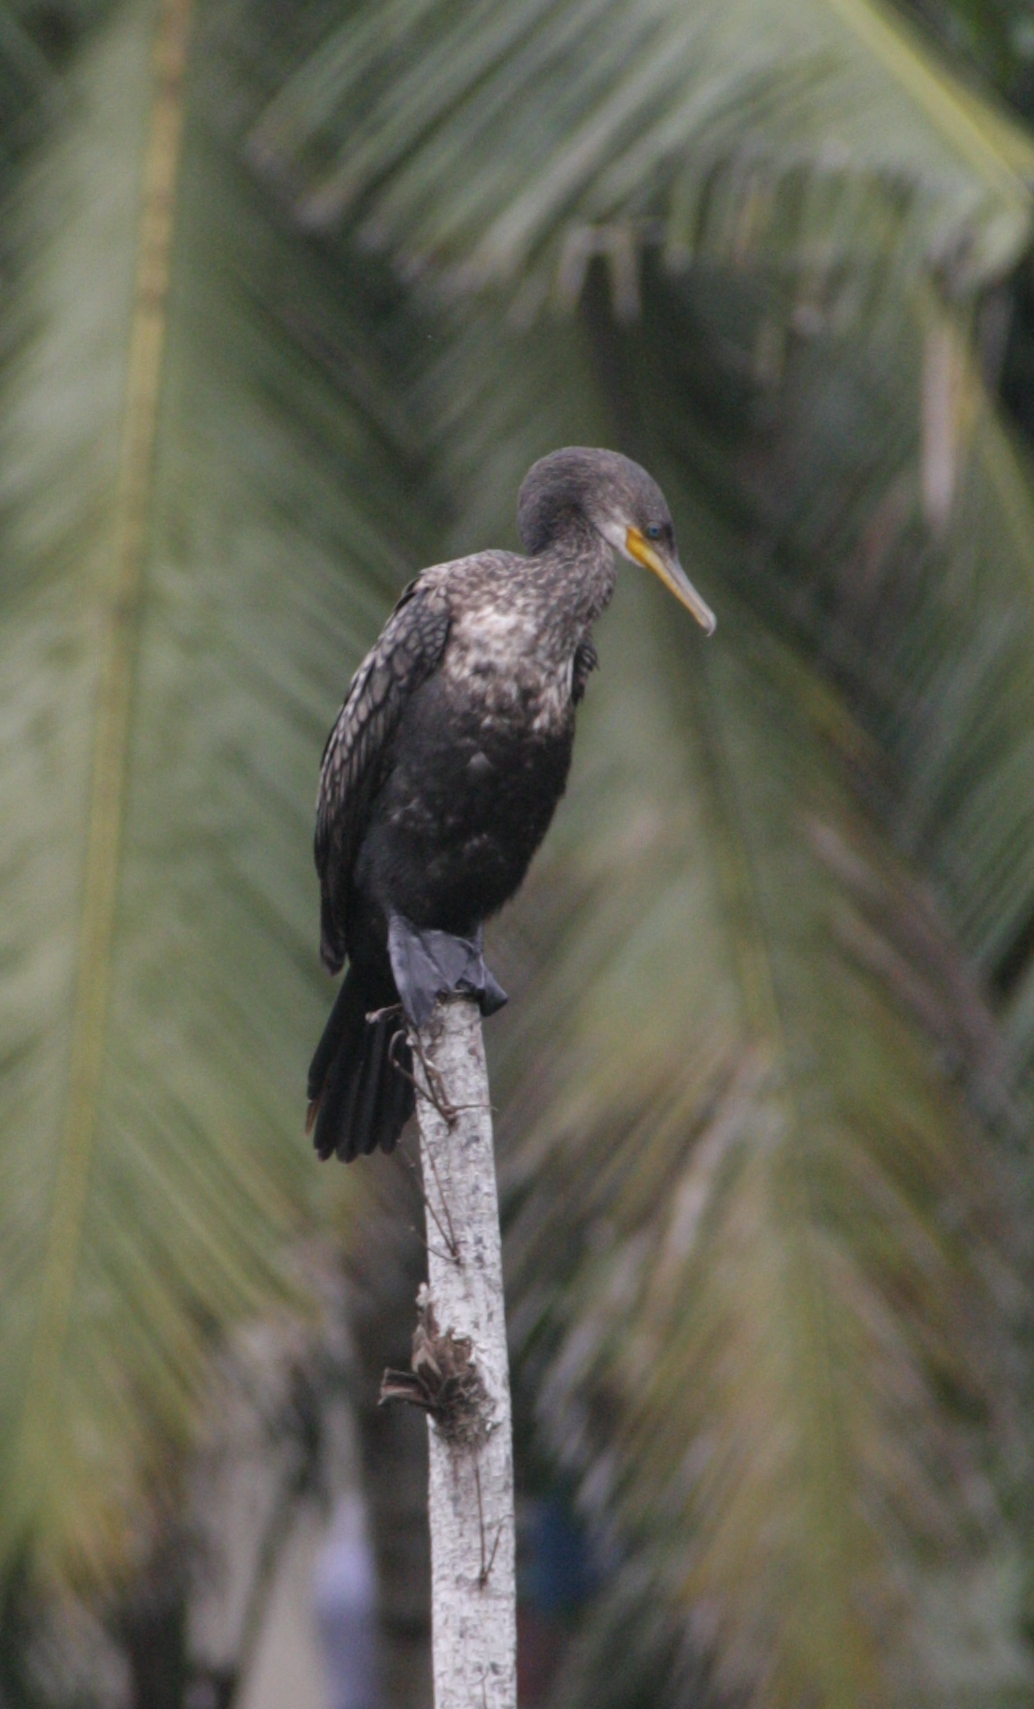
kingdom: Animalia
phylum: Chordata
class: Aves
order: Suliformes
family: Phalacrocoracidae
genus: Phalacrocorax
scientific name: Phalacrocorax fuscicollis
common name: Indian cormorant
